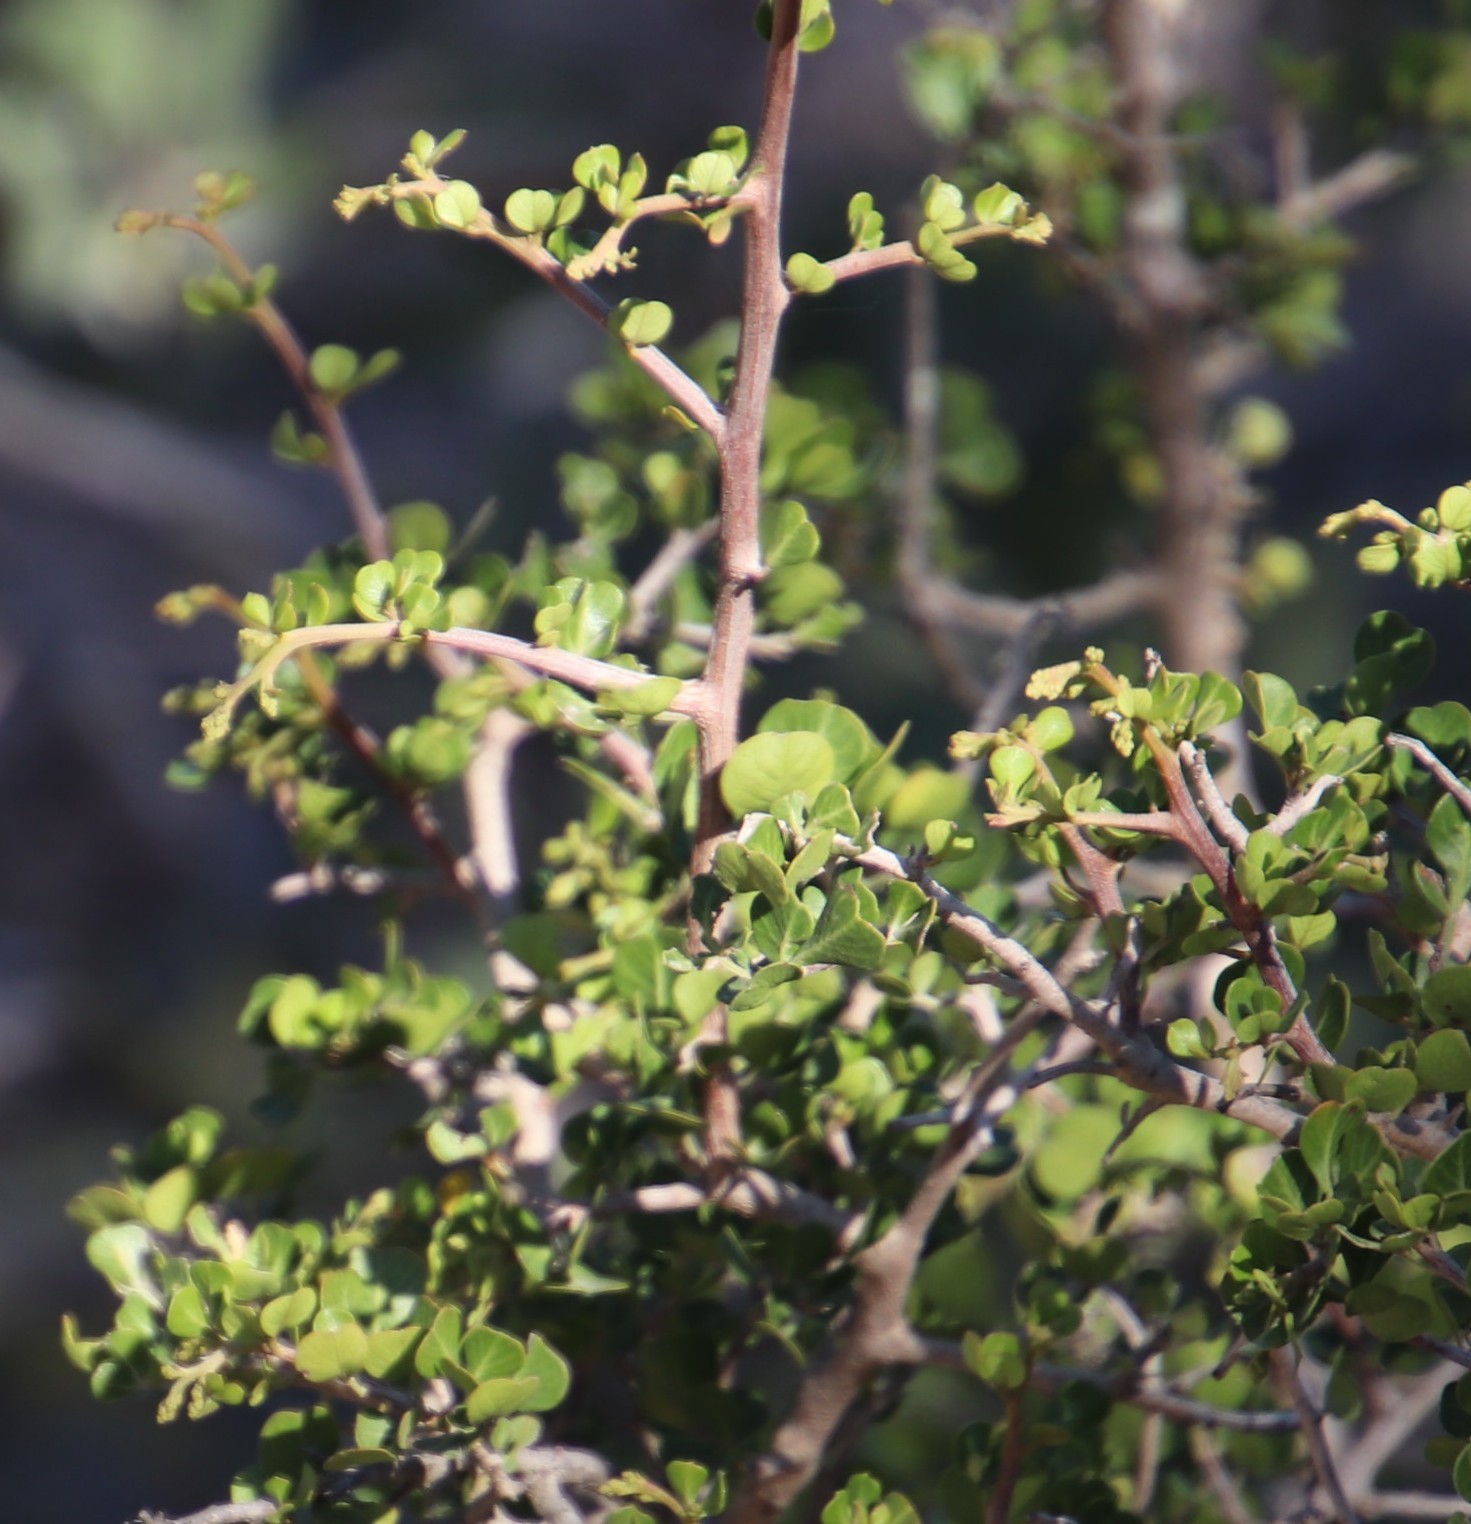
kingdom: Plantae
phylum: Tracheophyta
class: Magnoliopsida
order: Sapindales
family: Anacardiaceae
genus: Searsia
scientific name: Searsia glauca
